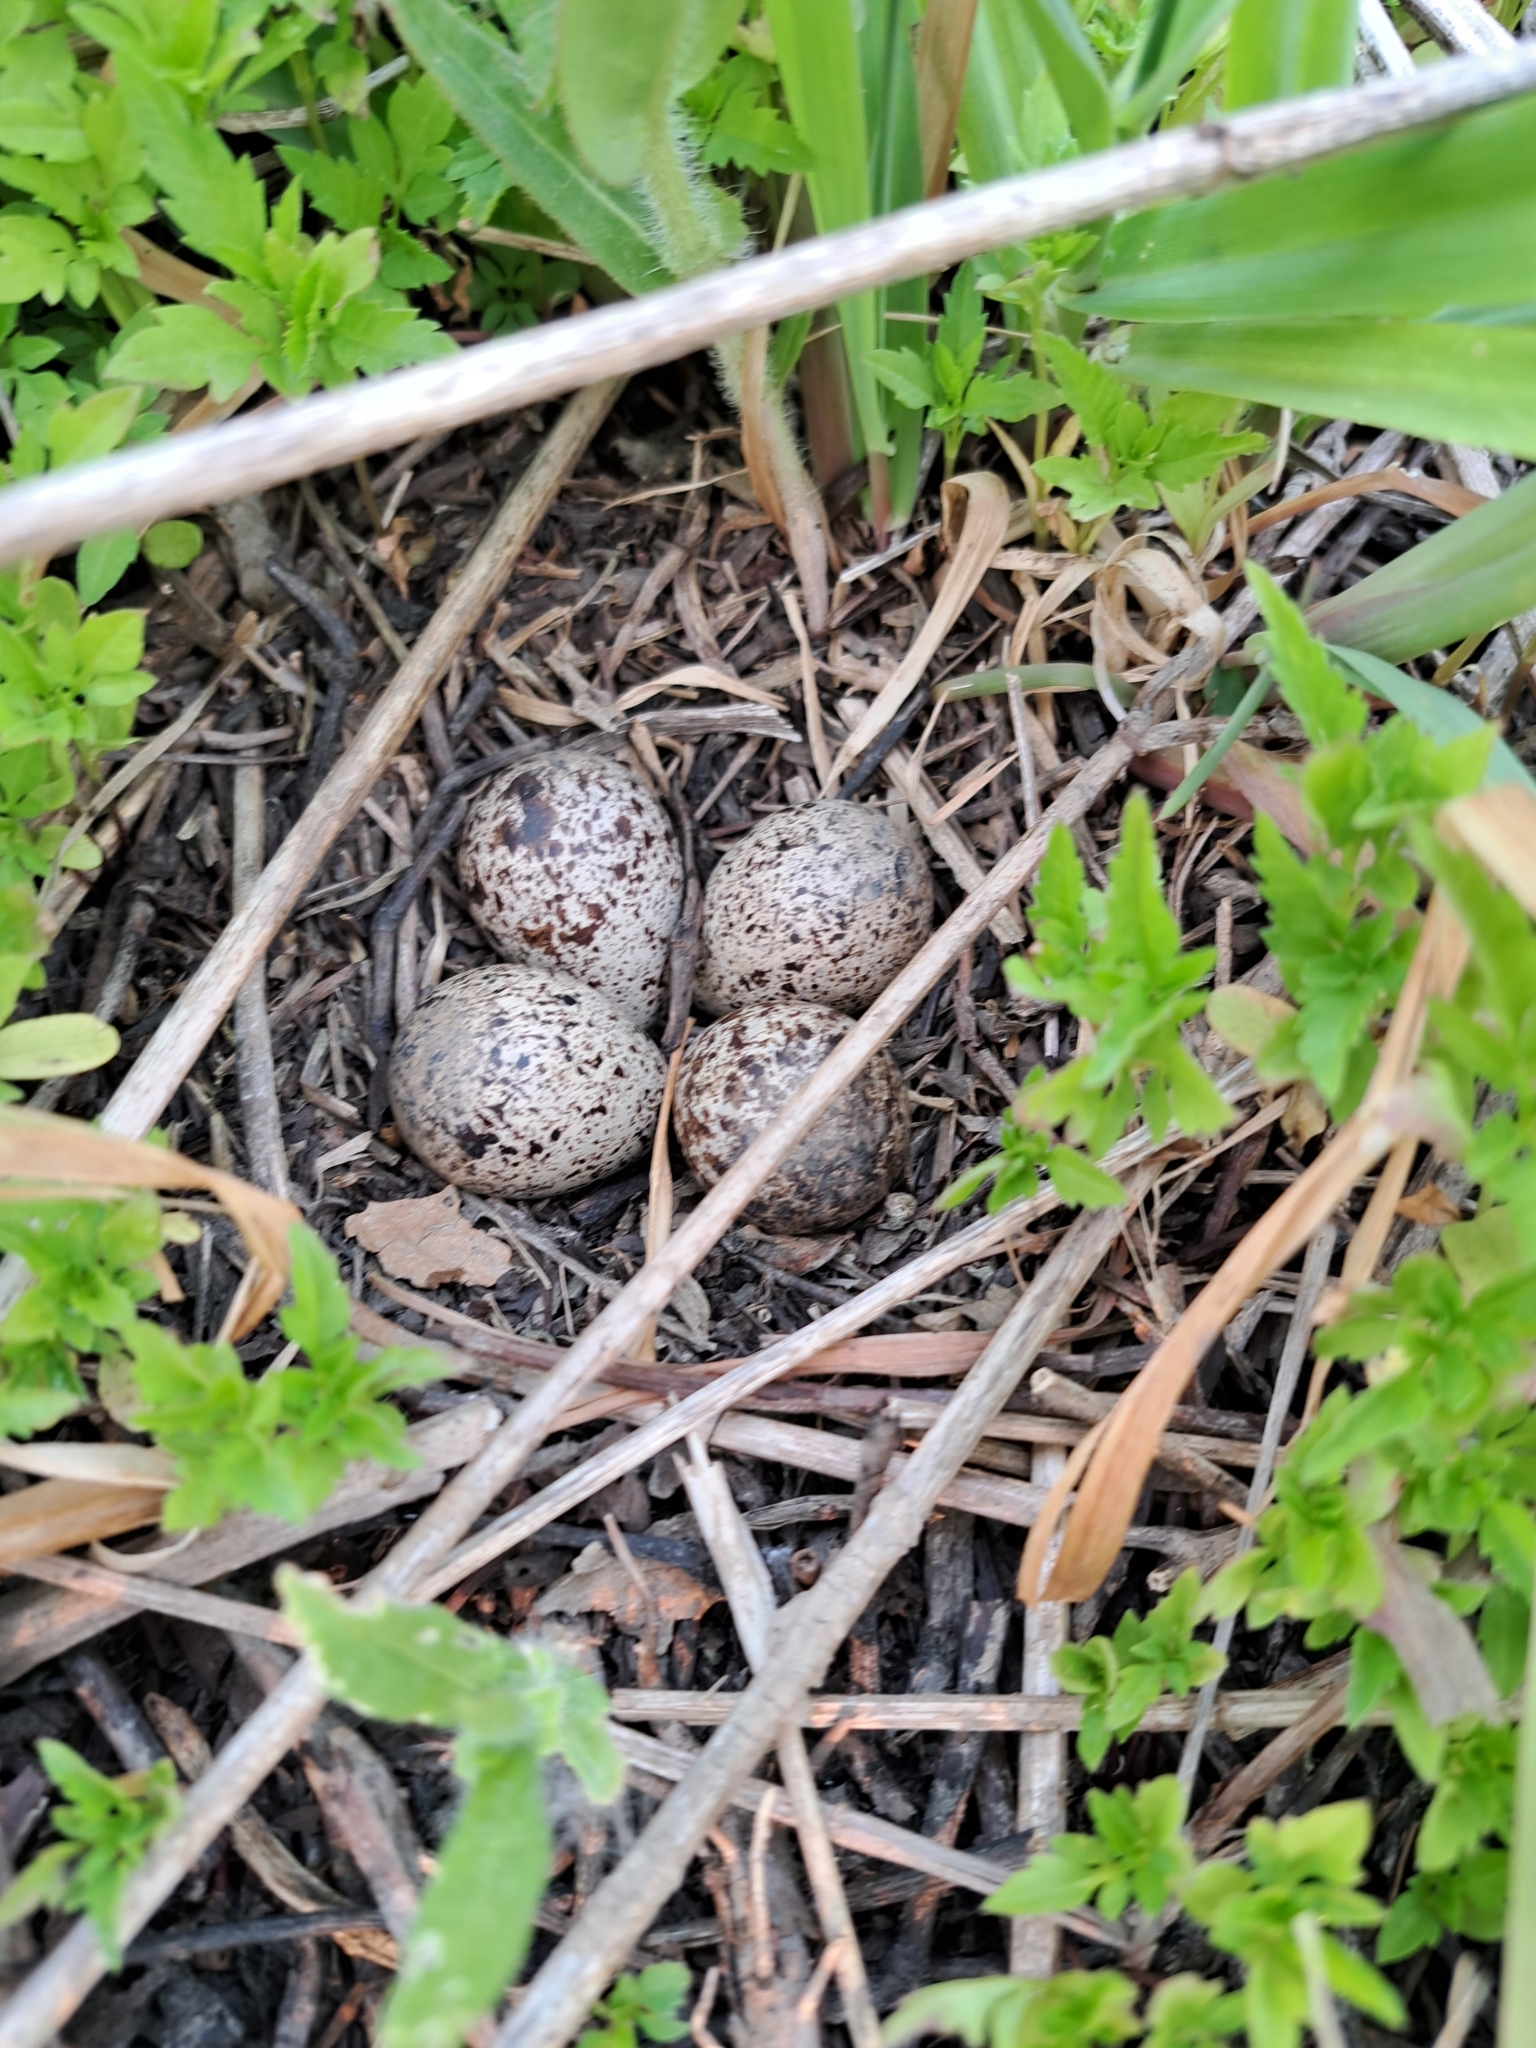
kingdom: Animalia
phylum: Chordata
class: Aves
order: Charadriiformes
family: Scolopacidae
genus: Actitis
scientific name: Actitis macularius
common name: Spotted sandpiper
